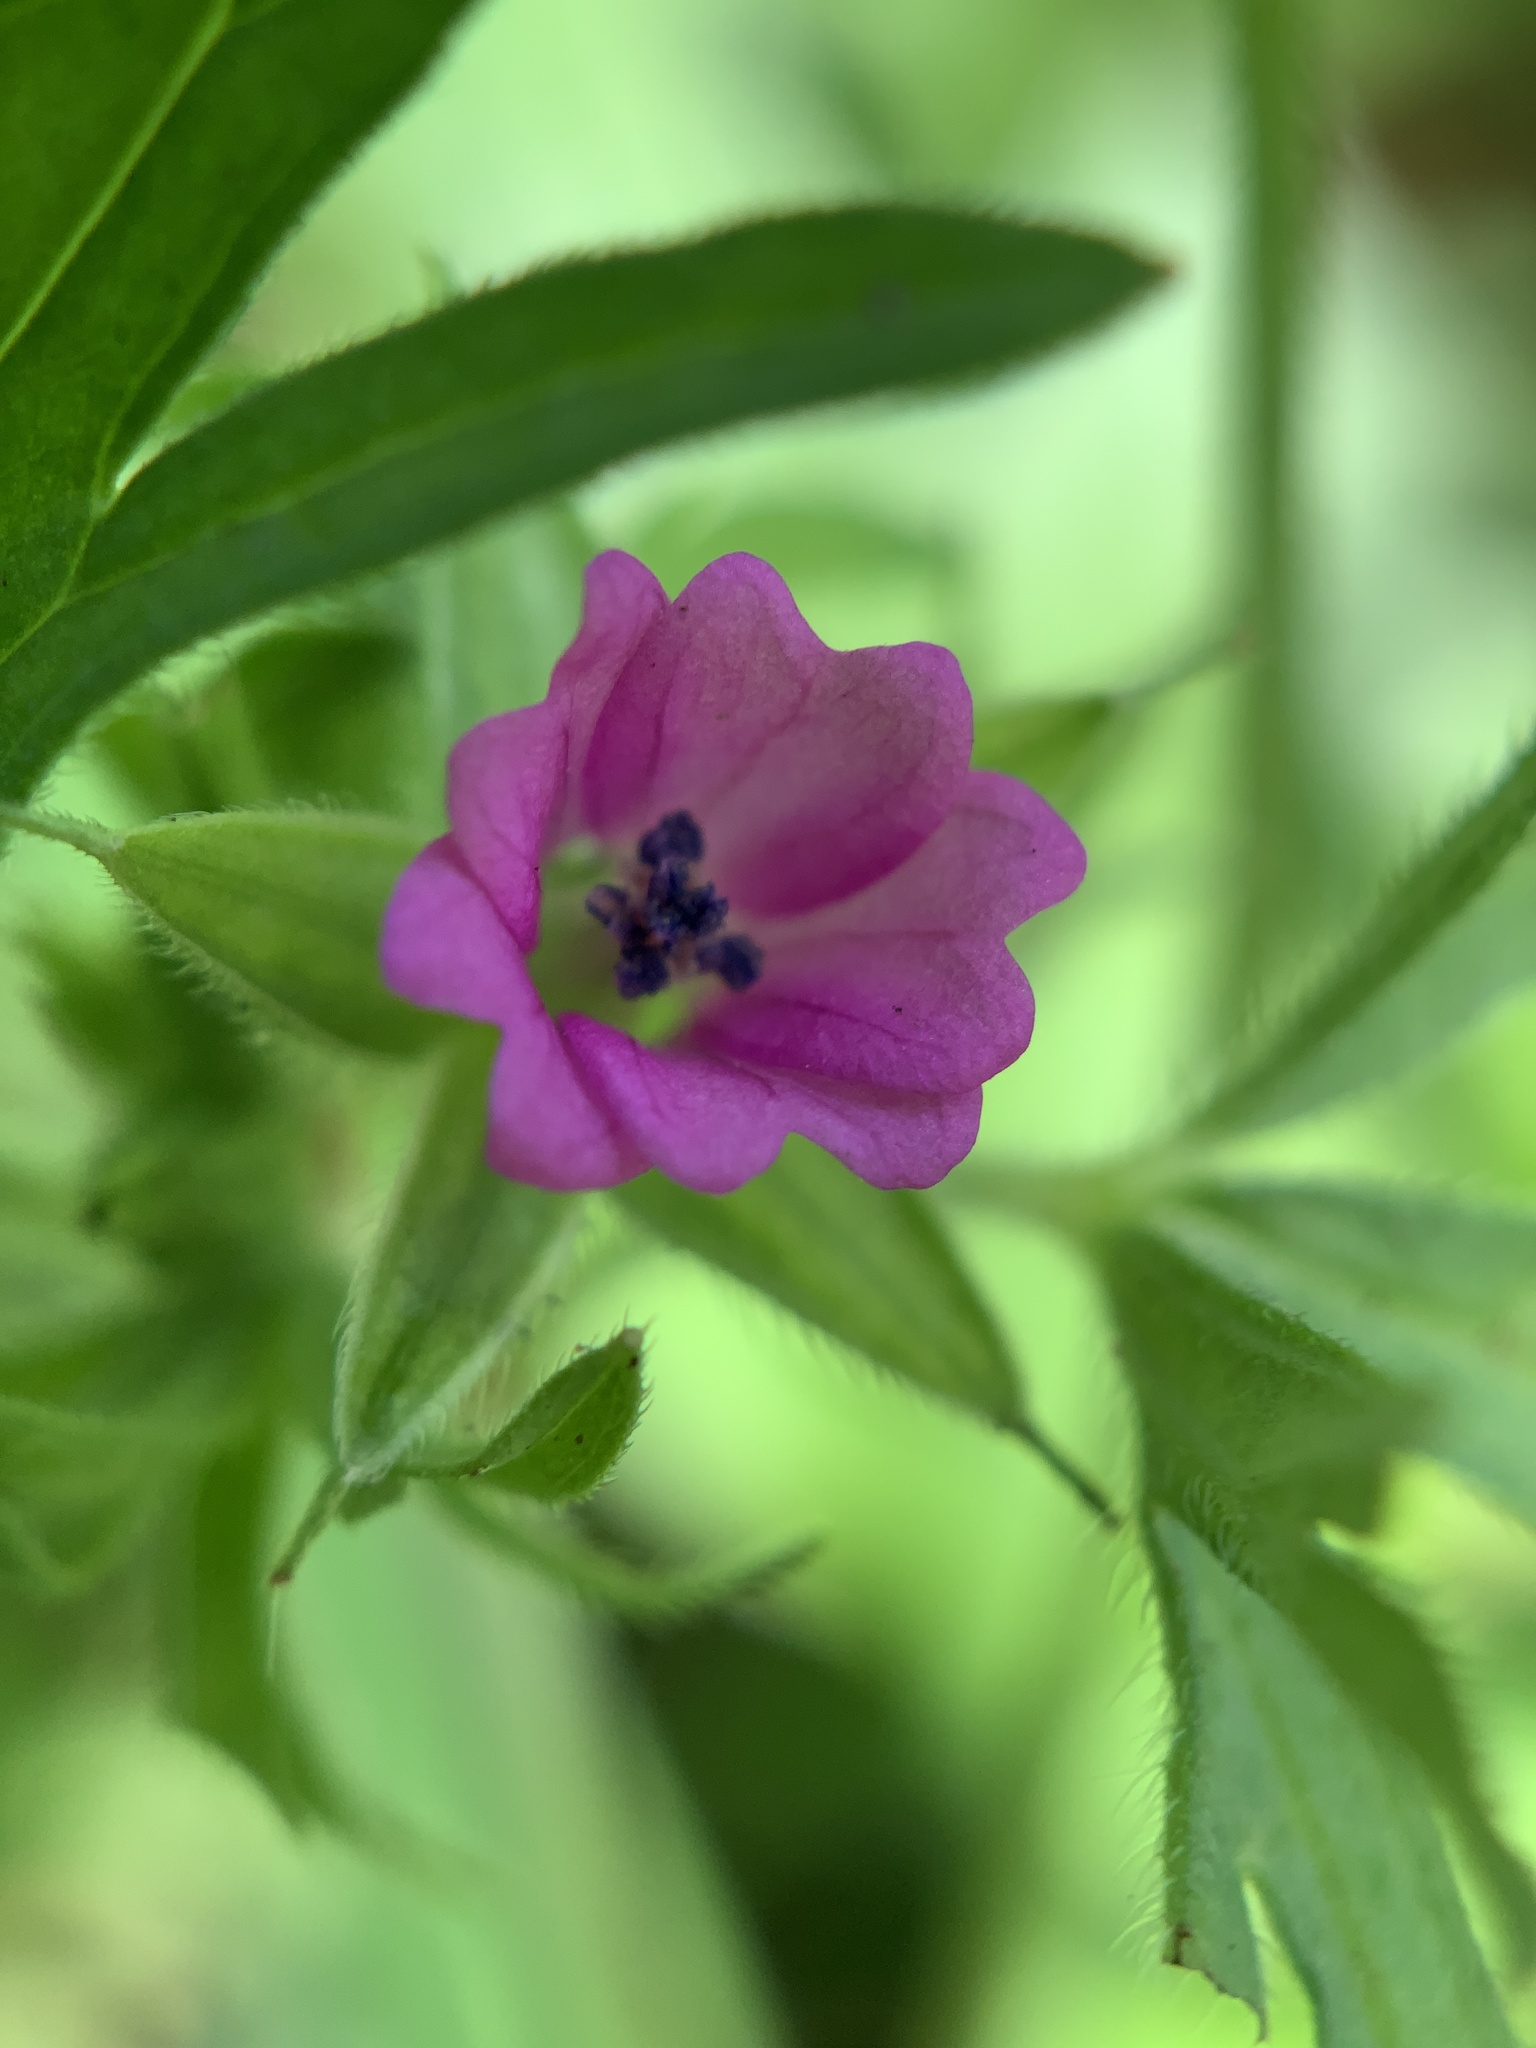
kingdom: Plantae
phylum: Tracheophyta
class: Magnoliopsida
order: Geraniales
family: Geraniaceae
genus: Geranium
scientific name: Geranium dissectum
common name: Cut-leaved crane's-bill
